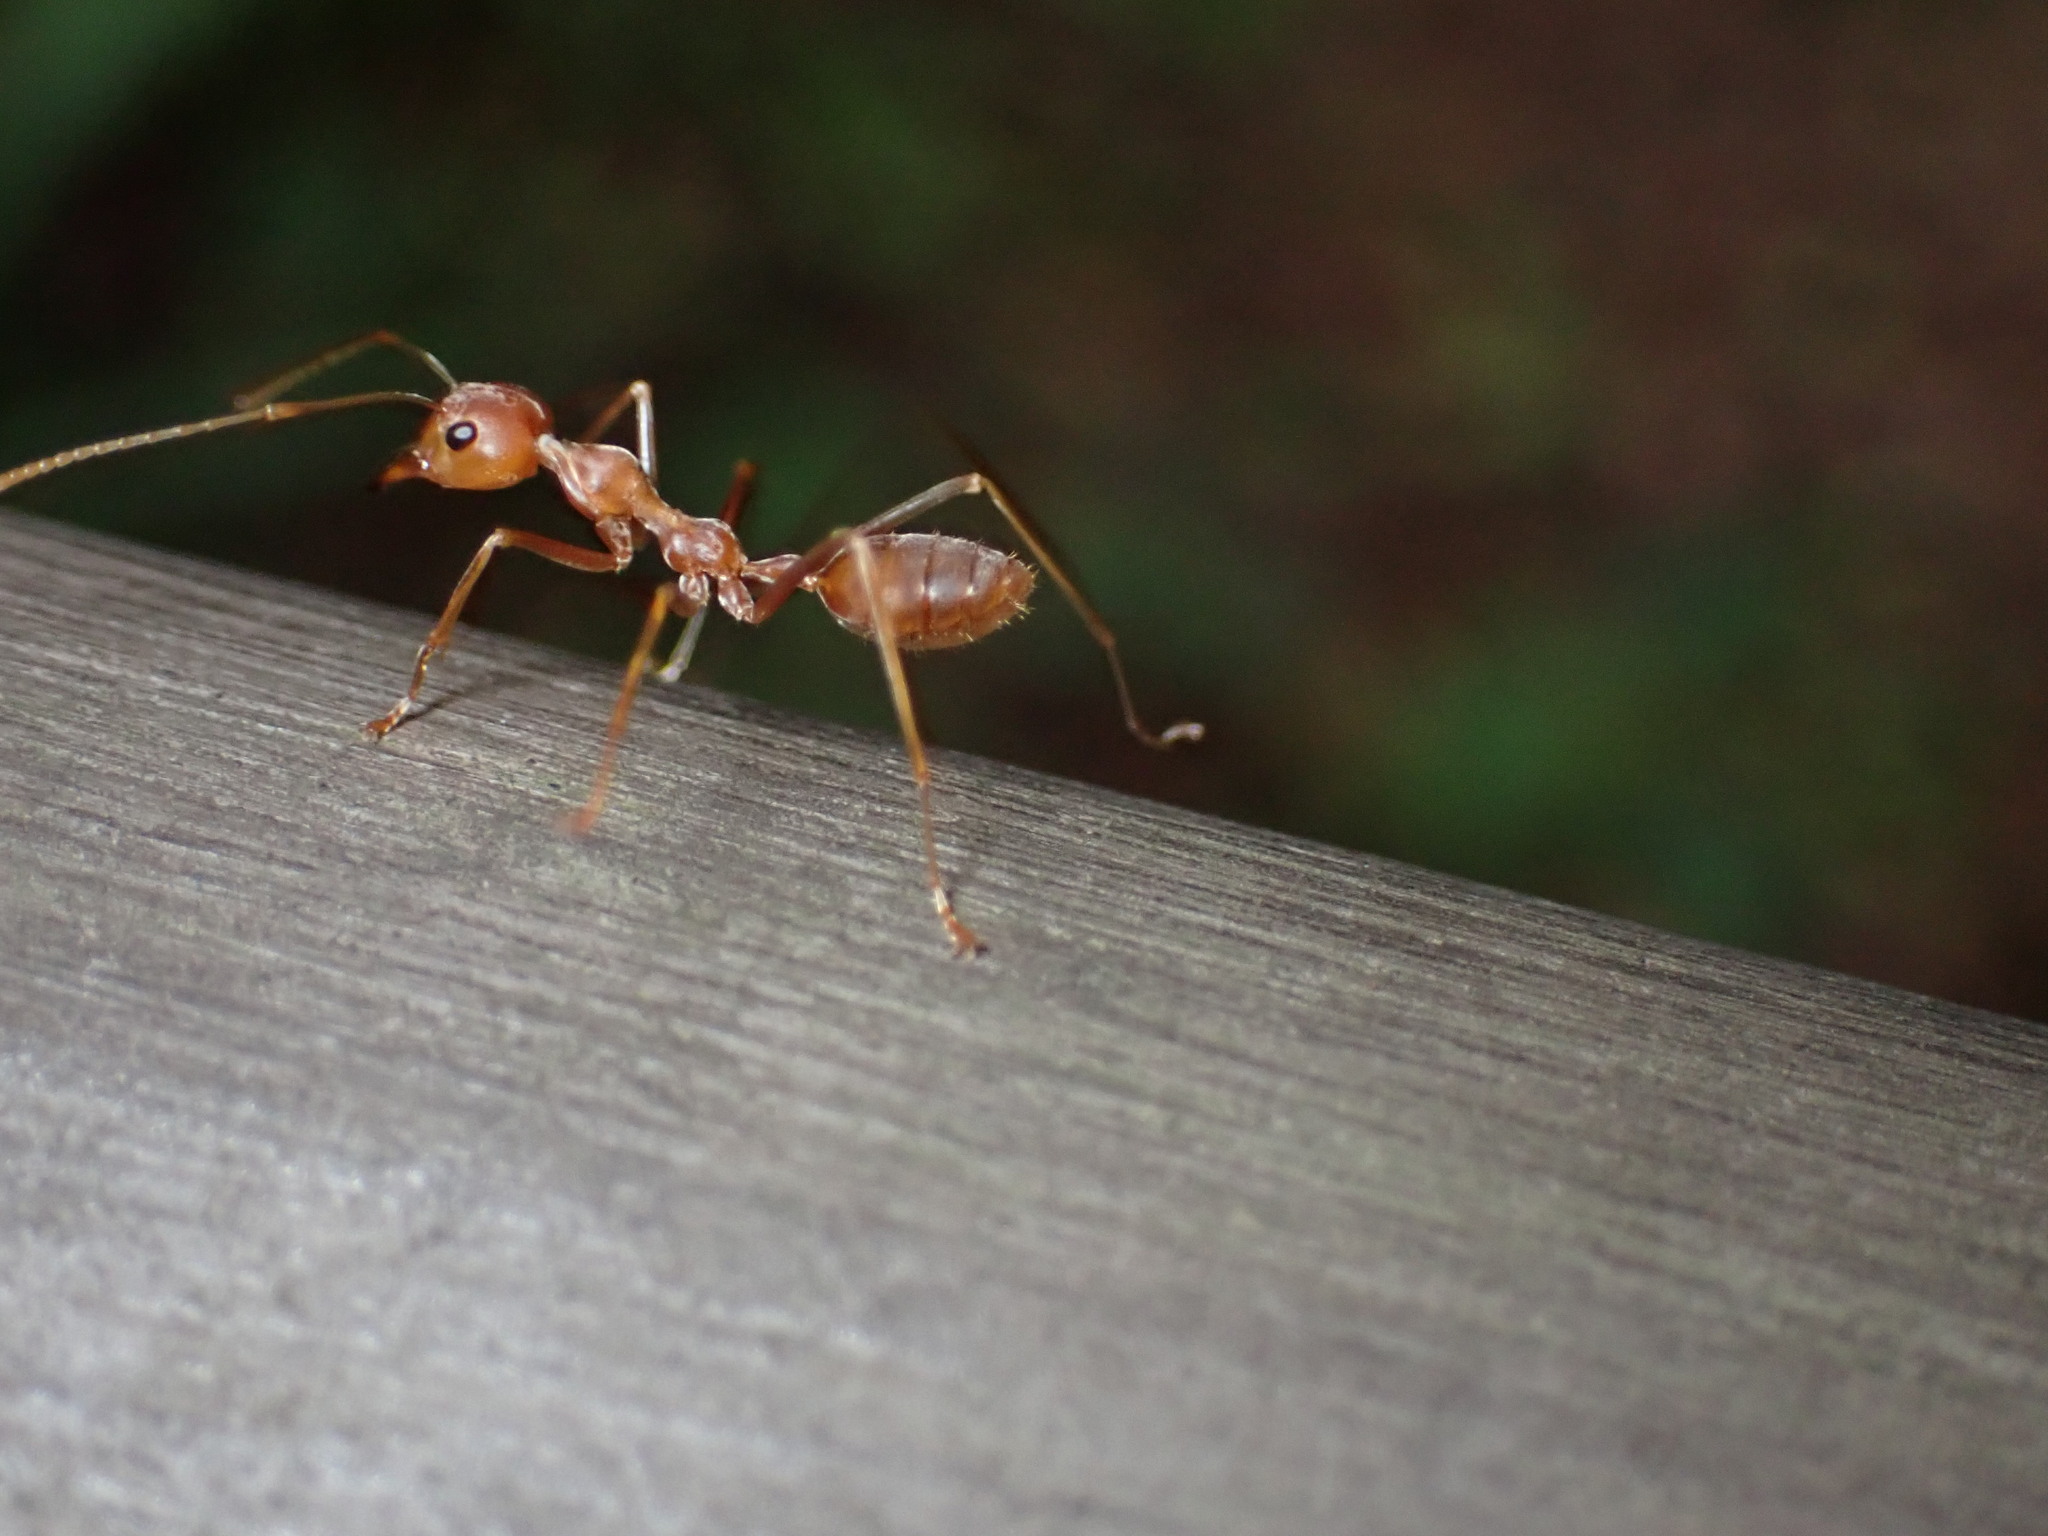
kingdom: Animalia
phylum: Arthropoda
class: Insecta
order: Hymenoptera
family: Formicidae
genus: Oecophylla
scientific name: Oecophylla smaragdina
